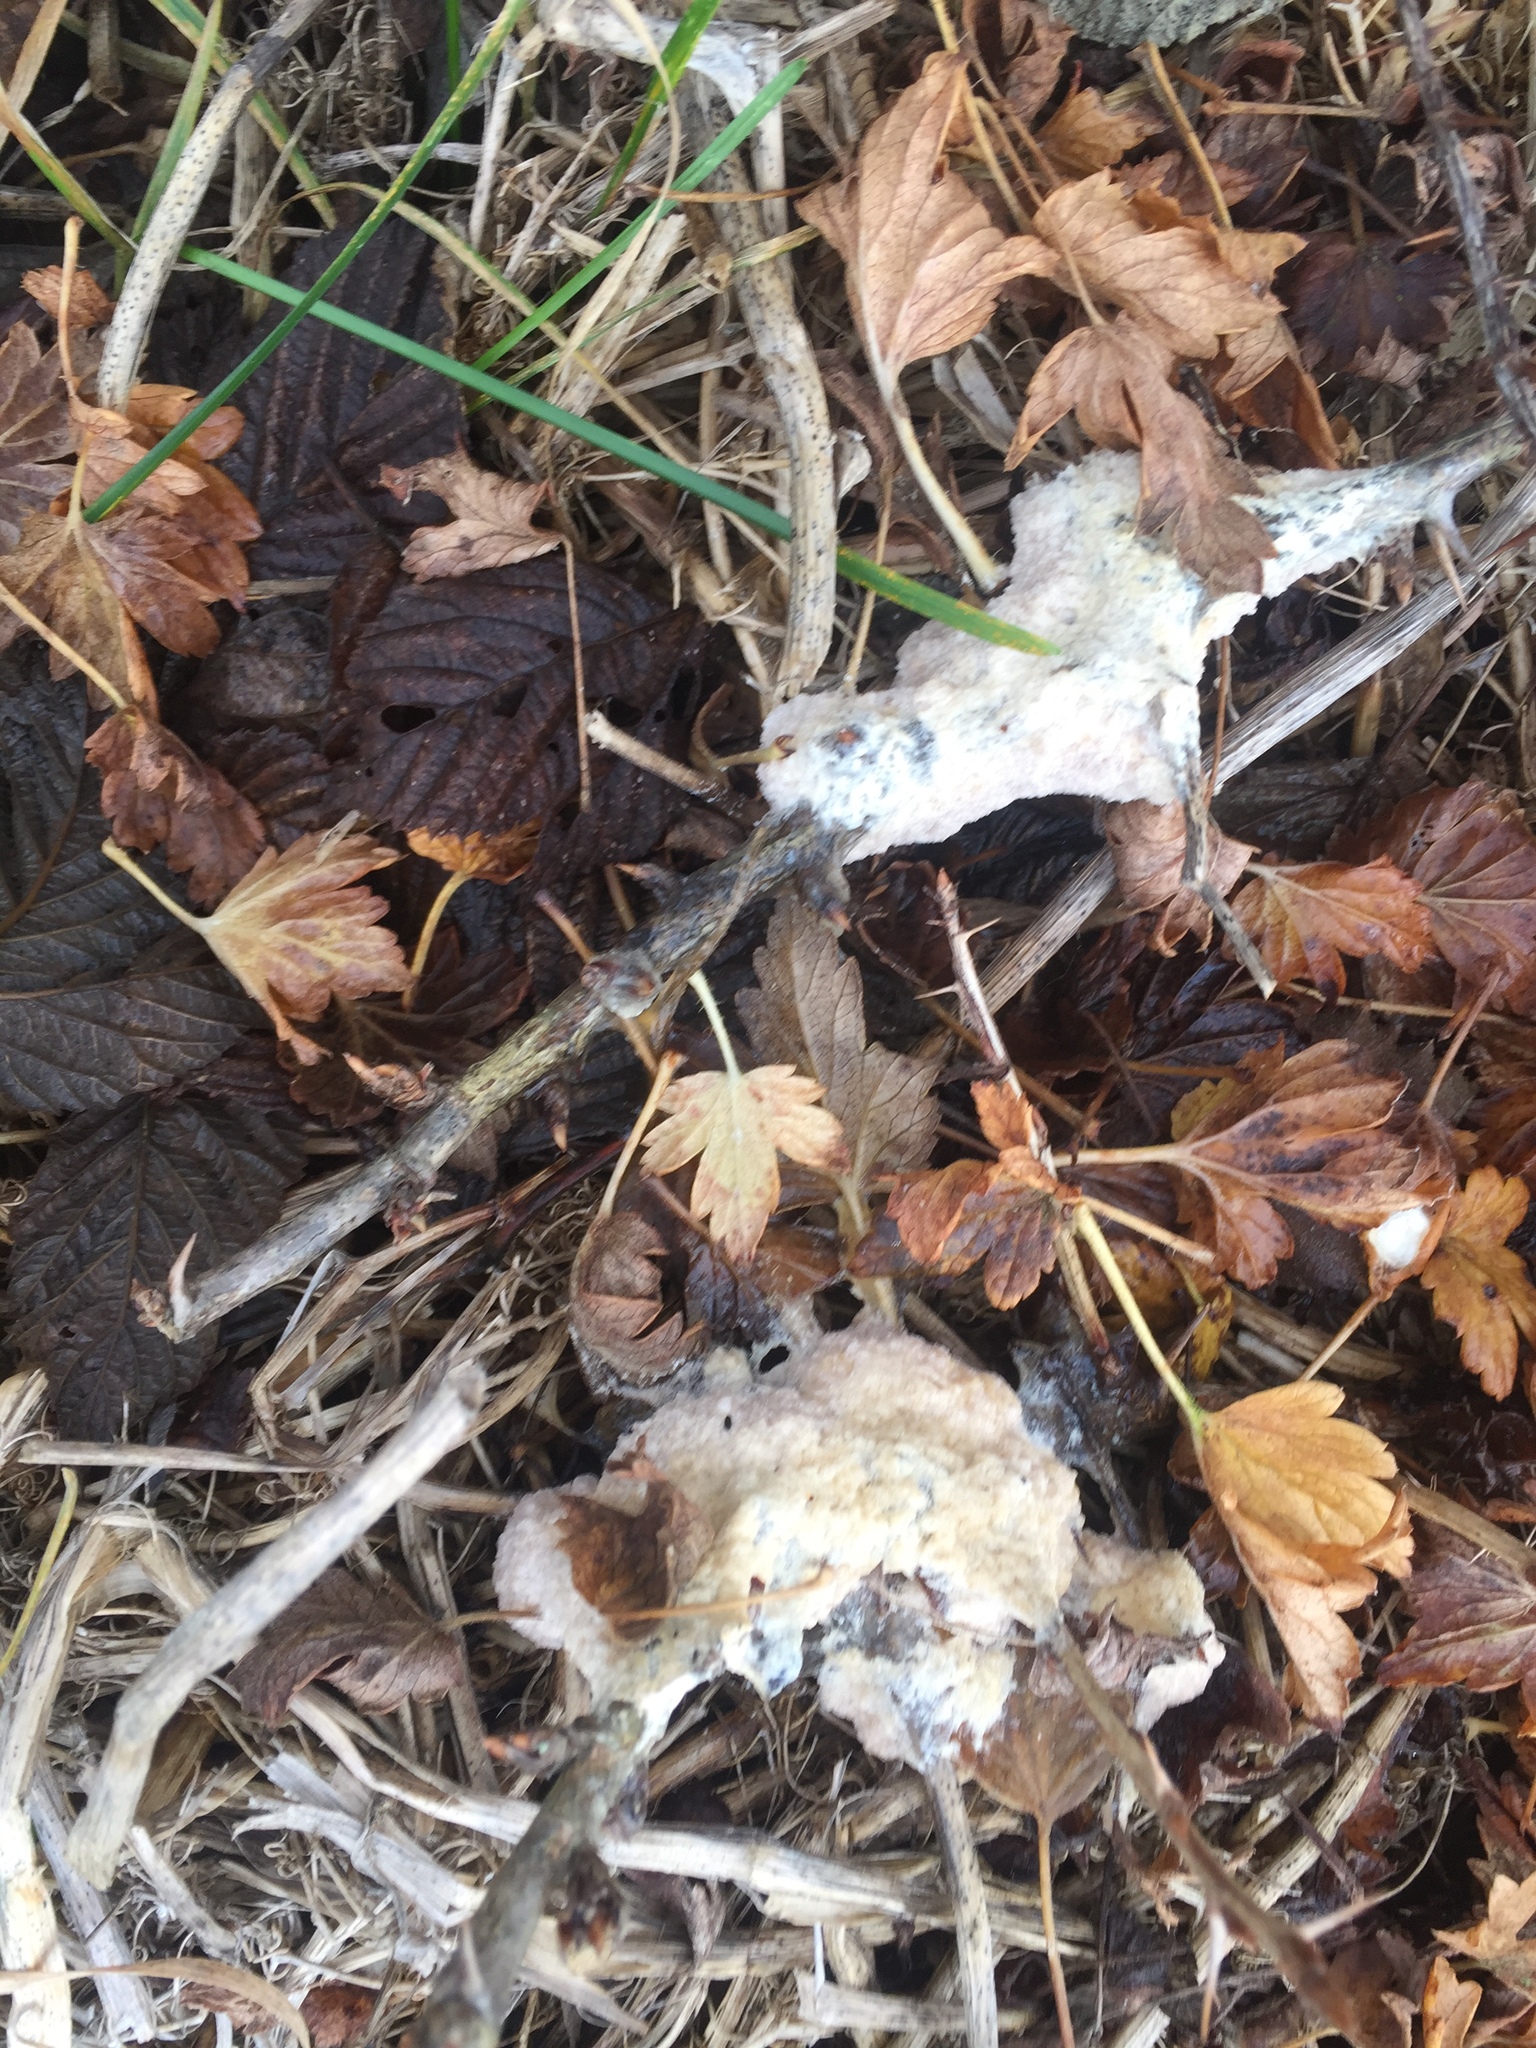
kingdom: Protozoa
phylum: Mycetozoa
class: Myxomycetes
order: Physarales
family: Physaraceae
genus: Didymium
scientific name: Didymium
